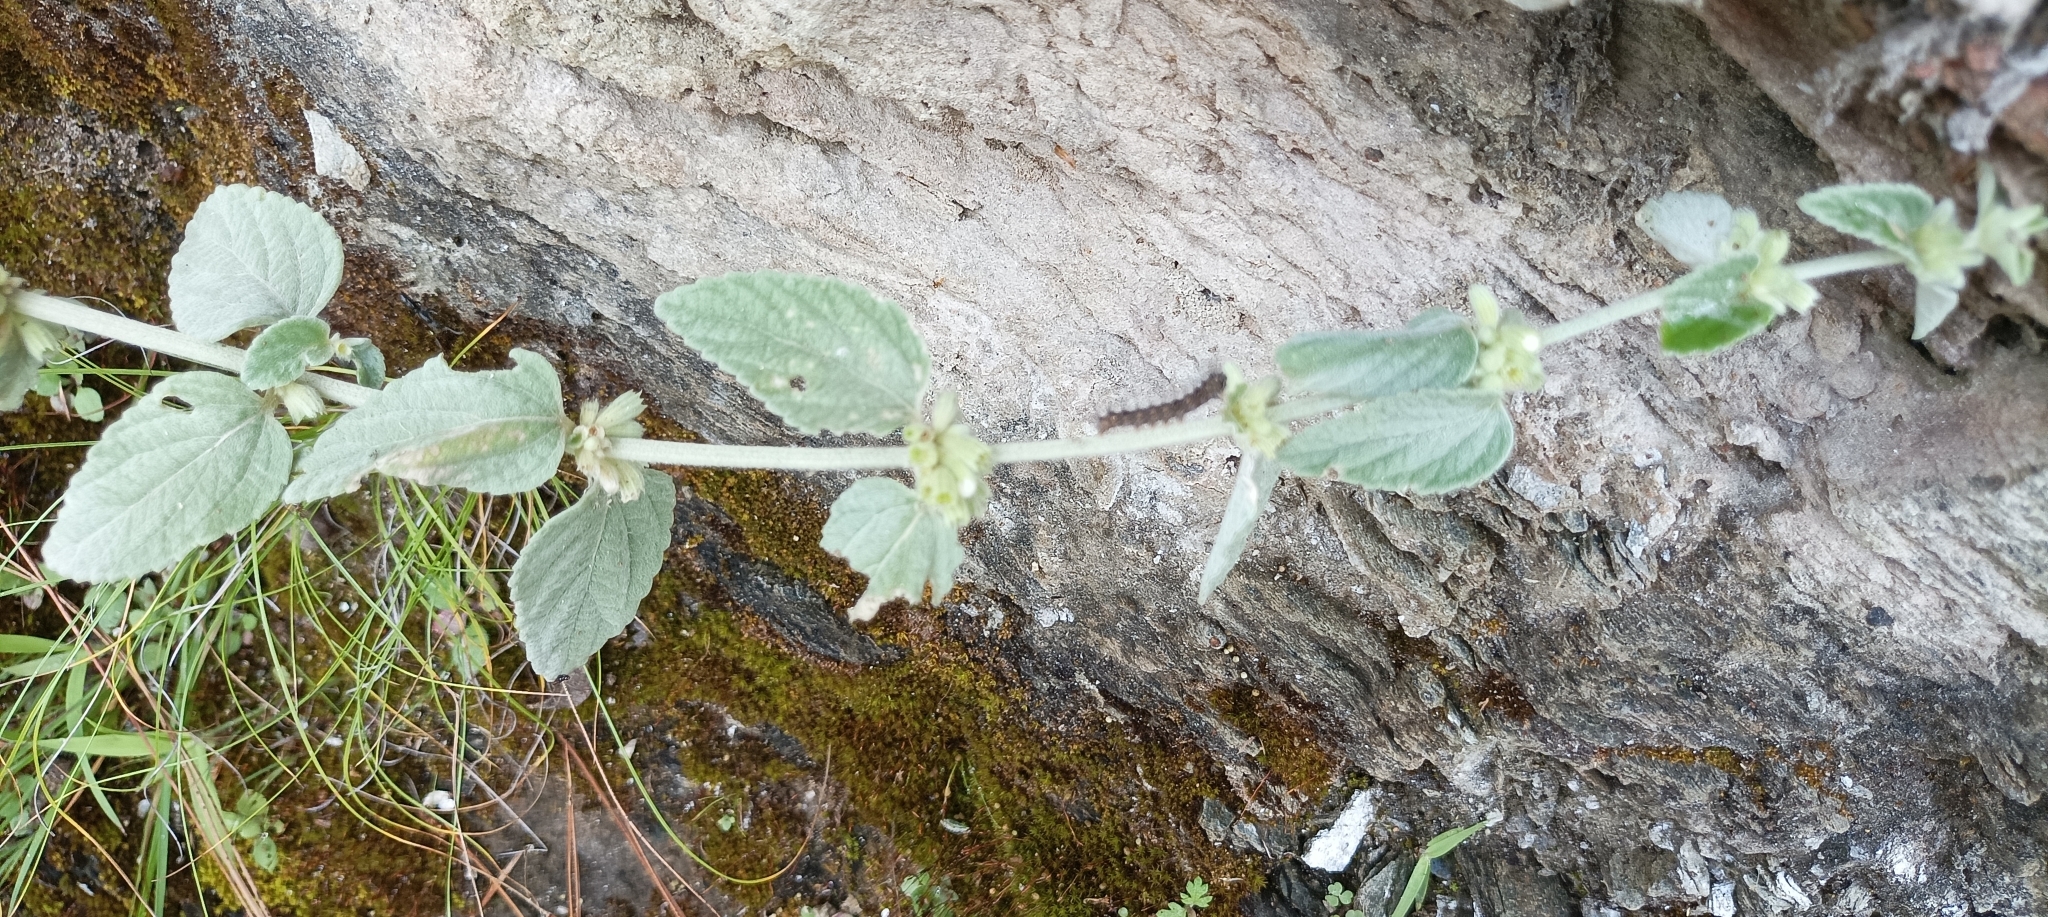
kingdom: Plantae
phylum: Tracheophyta
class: Magnoliopsida
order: Lamiales
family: Lamiaceae
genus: Leucas
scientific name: Leucas lanata
